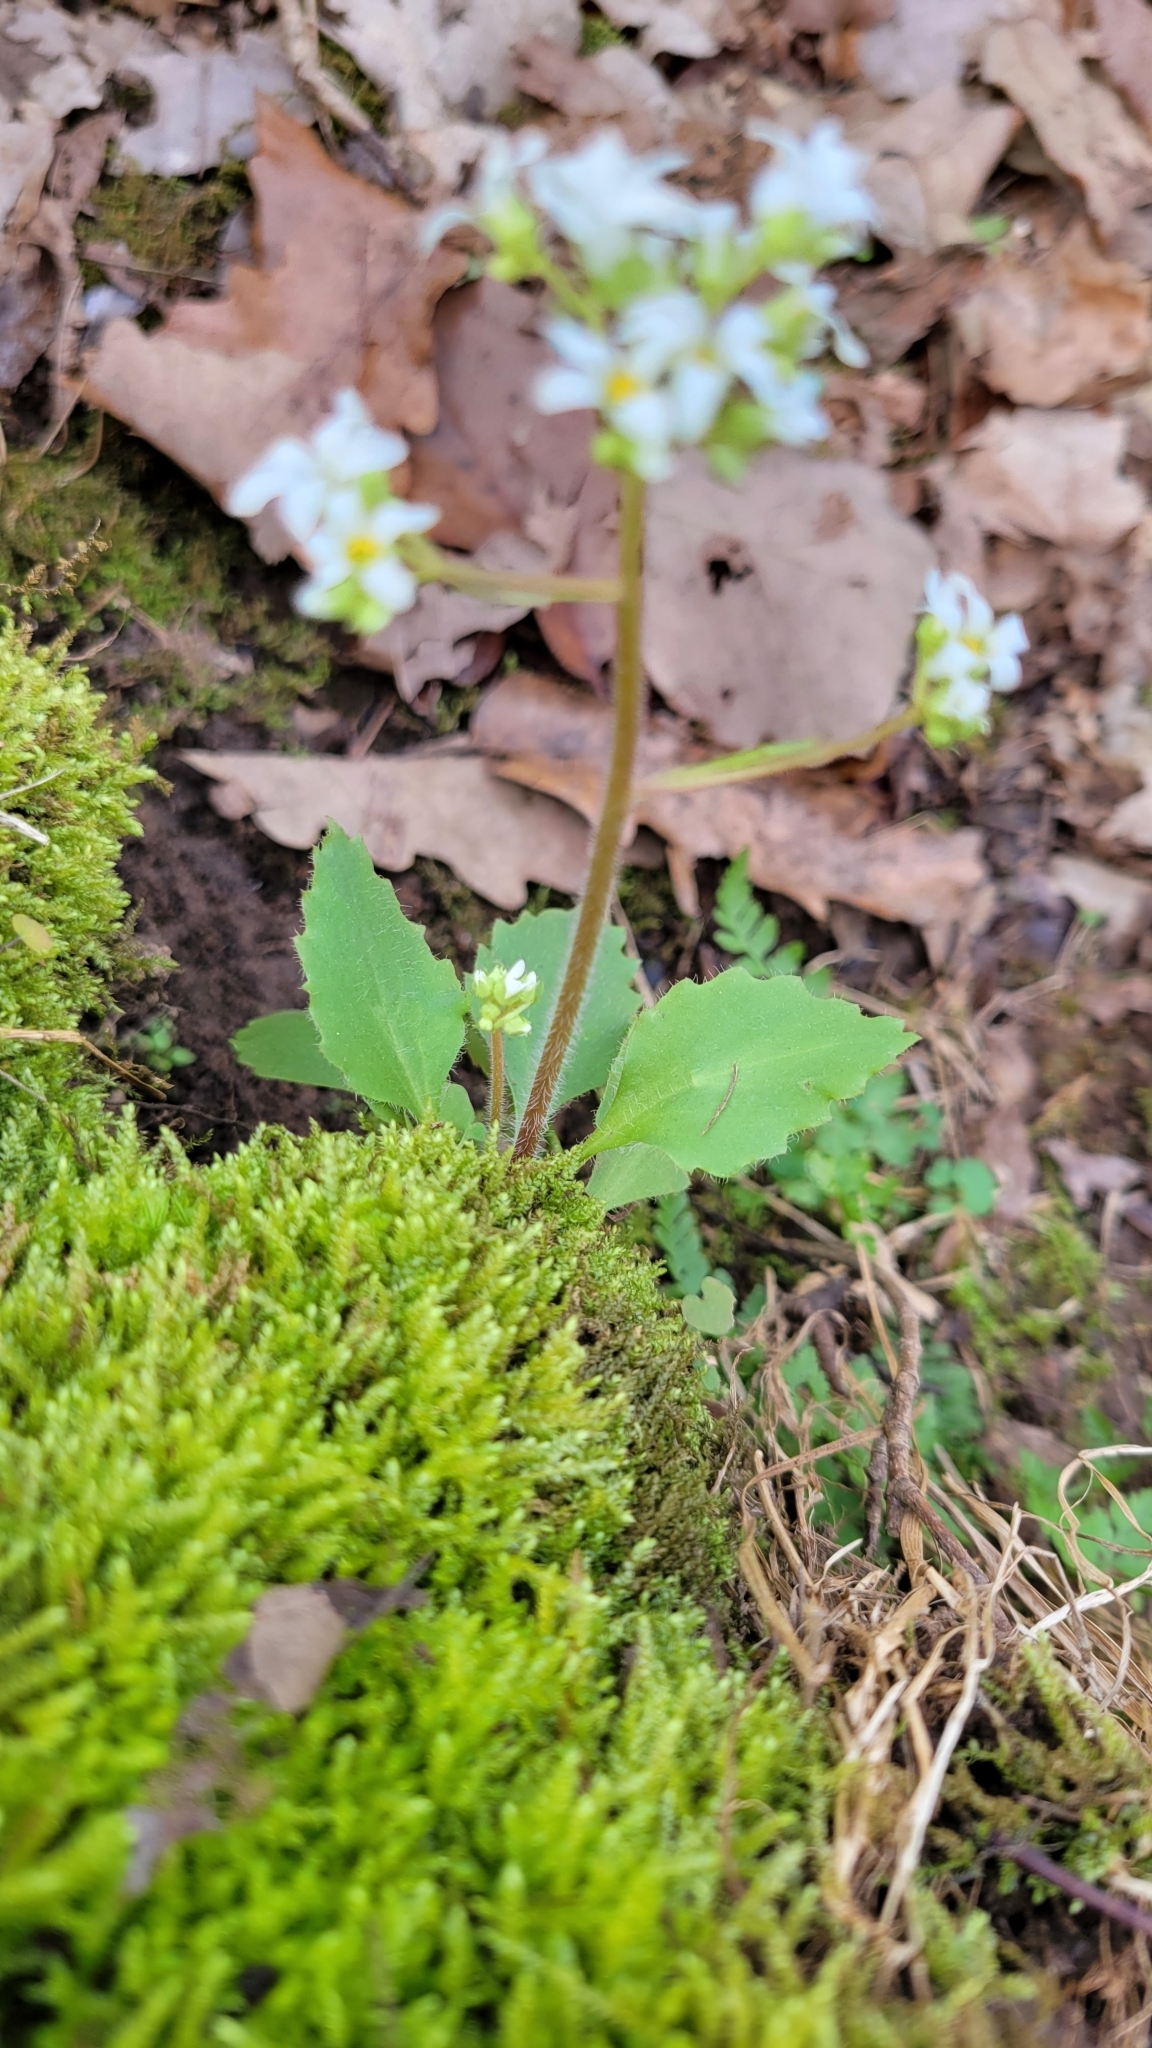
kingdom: Plantae
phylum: Tracheophyta
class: Magnoliopsida
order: Saxifragales
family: Saxifragaceae
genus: Micranthes
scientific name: Micranthes virginiensis
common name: Early saxifrage
